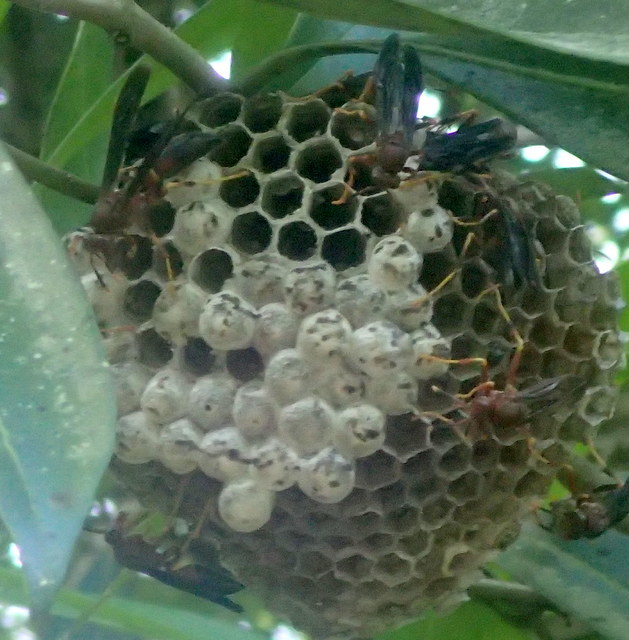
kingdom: Animalia
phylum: Arthropoda
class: Insecta
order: Hymenoptera
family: Eumenidae
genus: Polistes
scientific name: Polistes annularis
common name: Ringed paper wasp
